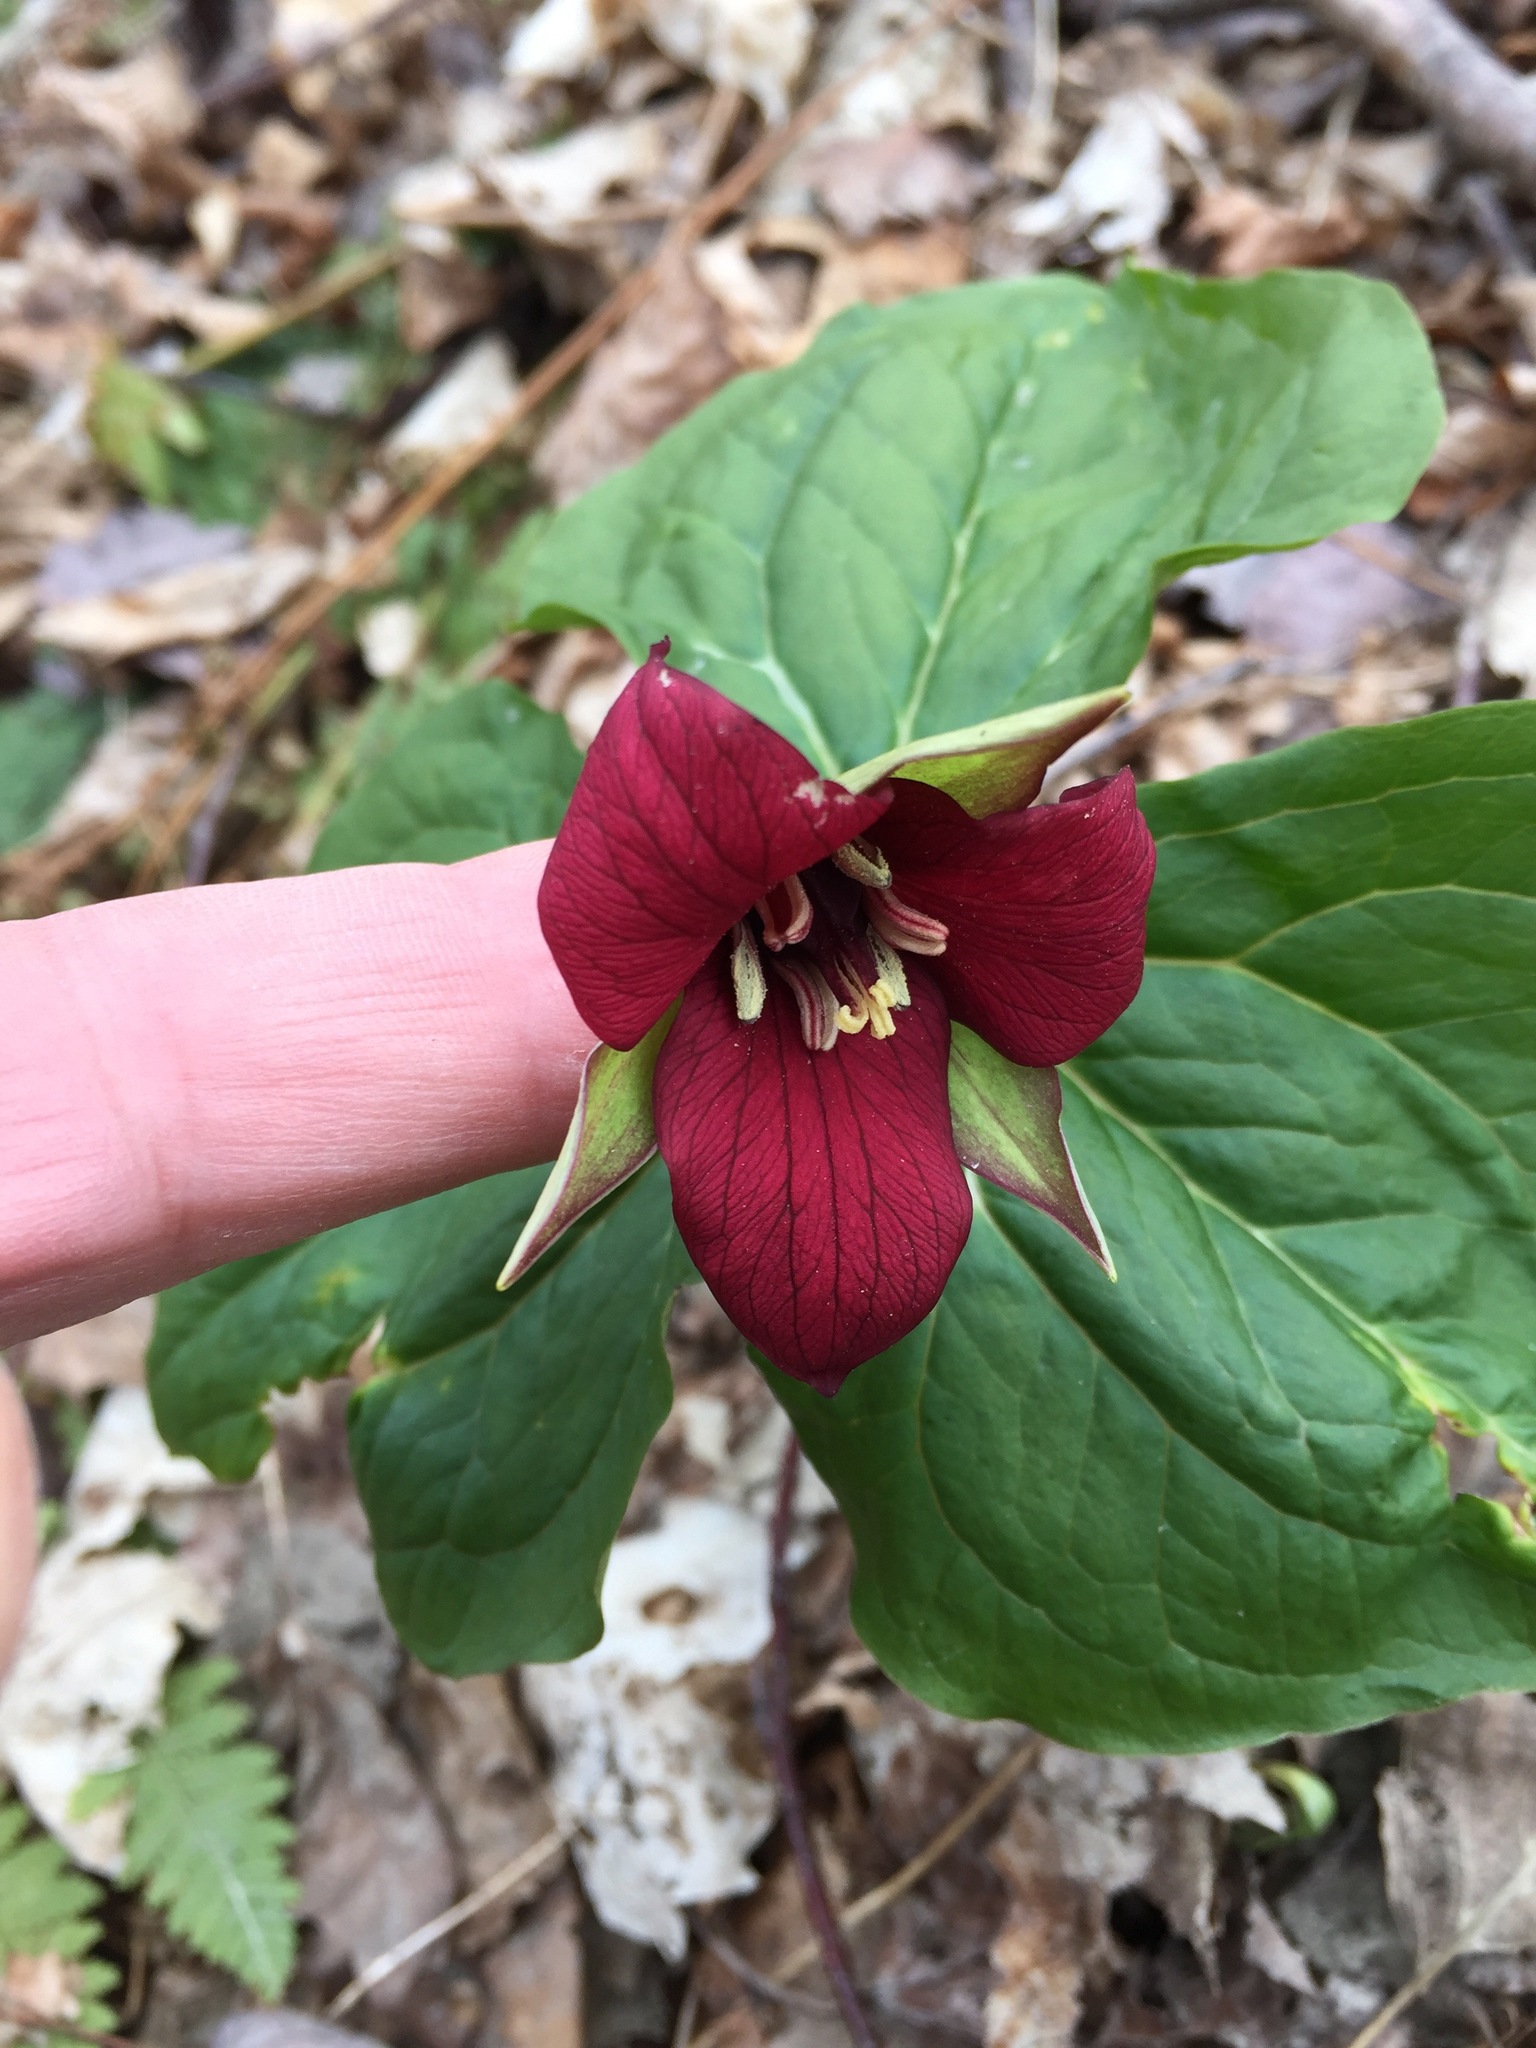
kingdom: Plantae
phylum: Tracheophyta
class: Liliopsida
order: Liliales
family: Melanthiaceae
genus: Trillium
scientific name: Trillium erectum
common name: Purple trillium
